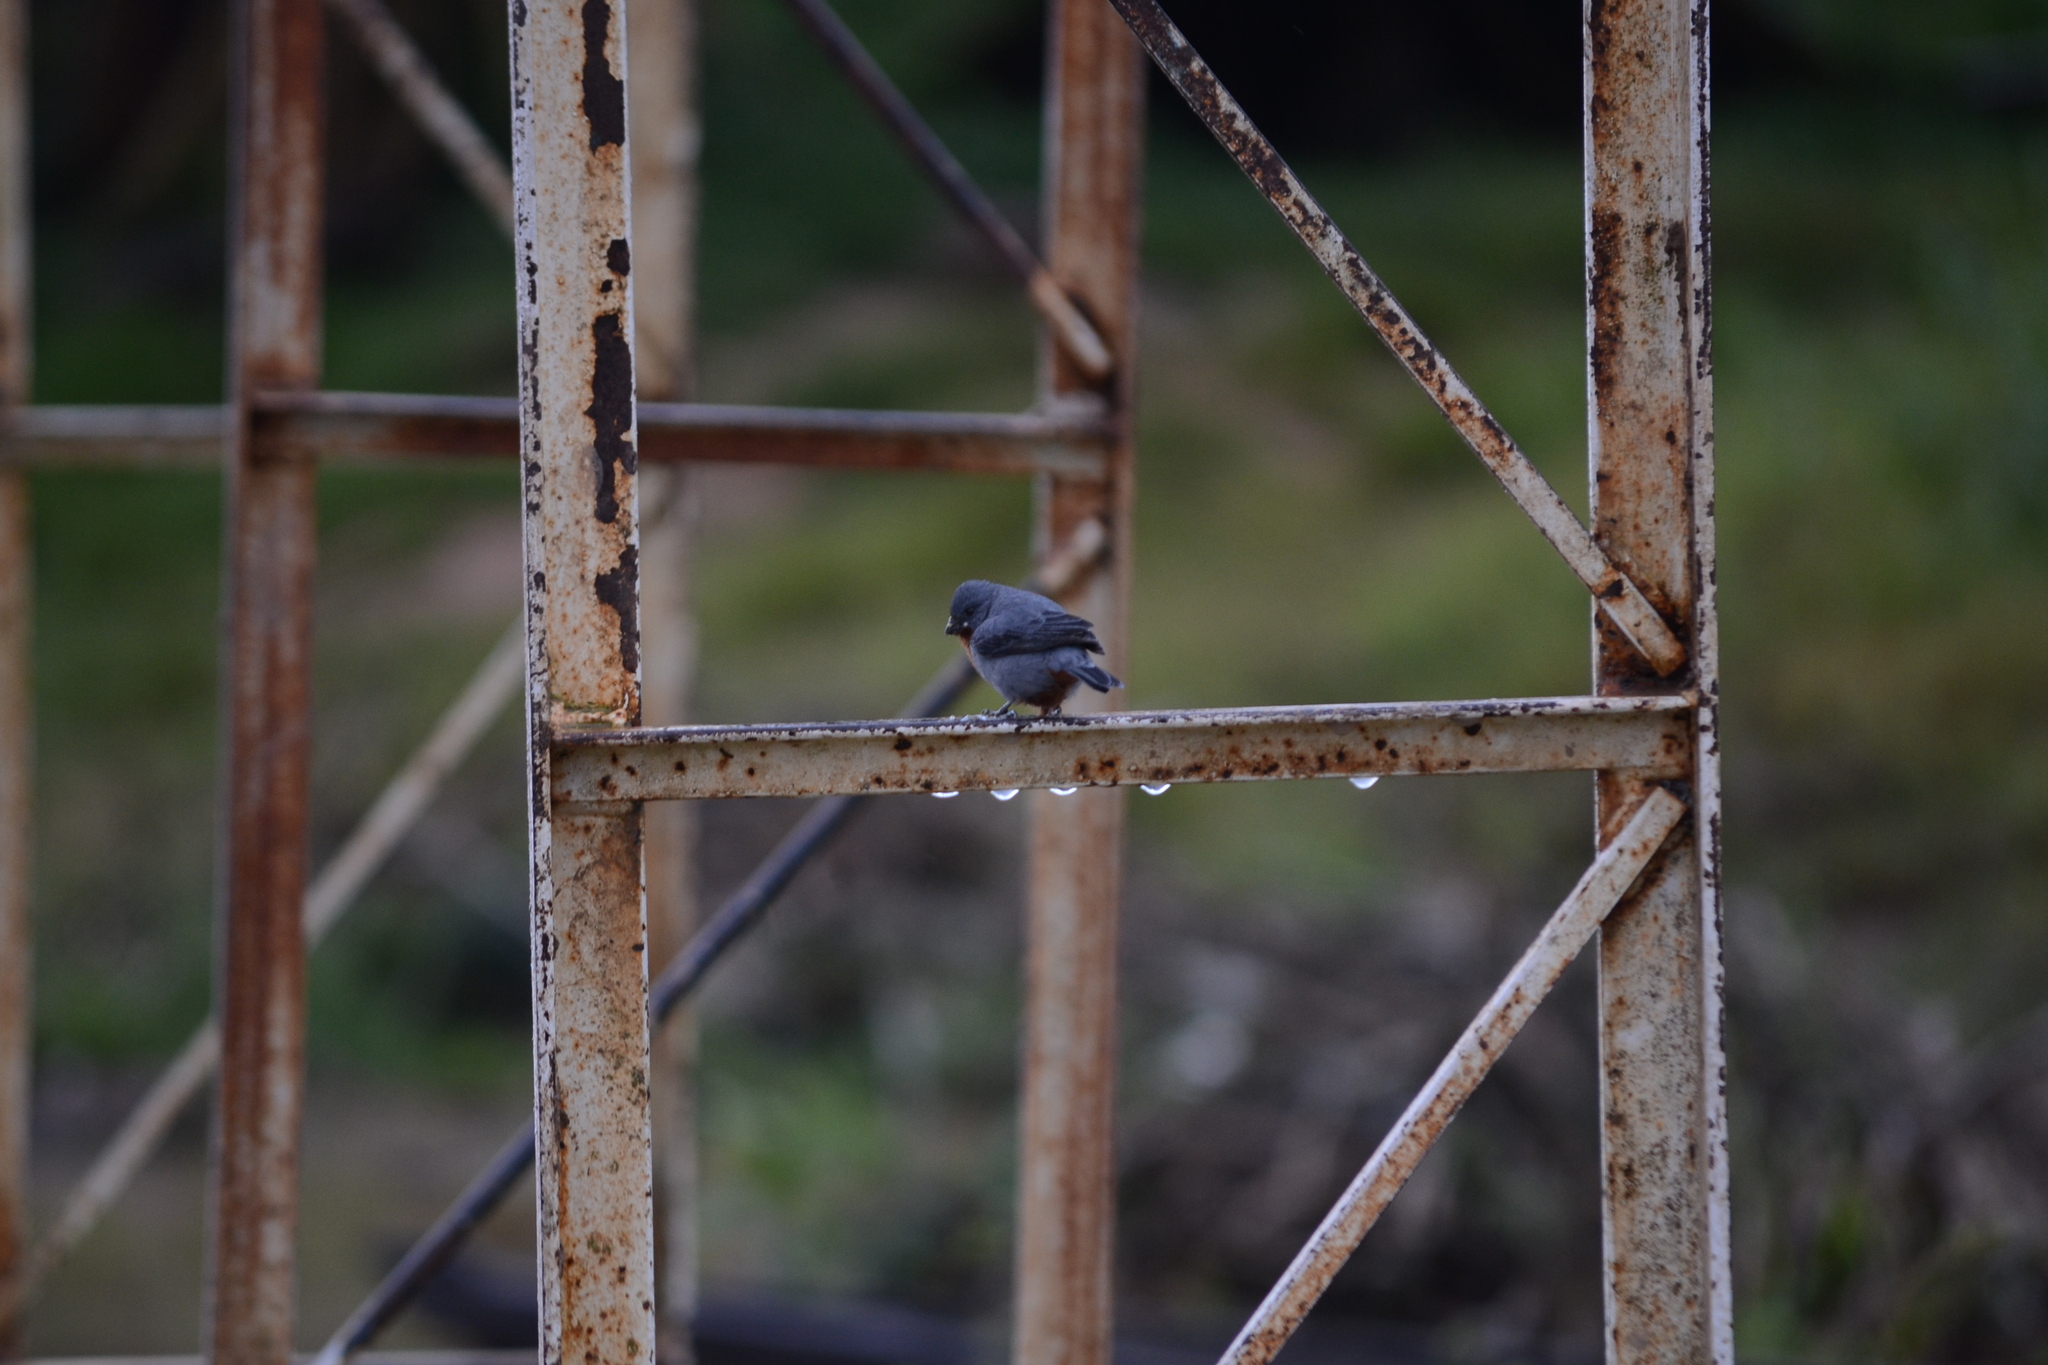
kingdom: Animalia
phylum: Chordata
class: Aves
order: Passeriformes
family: Thraupidae
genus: Sporophila
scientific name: Sporophila castaneiventris
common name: Chestnut-bellied seedeater
